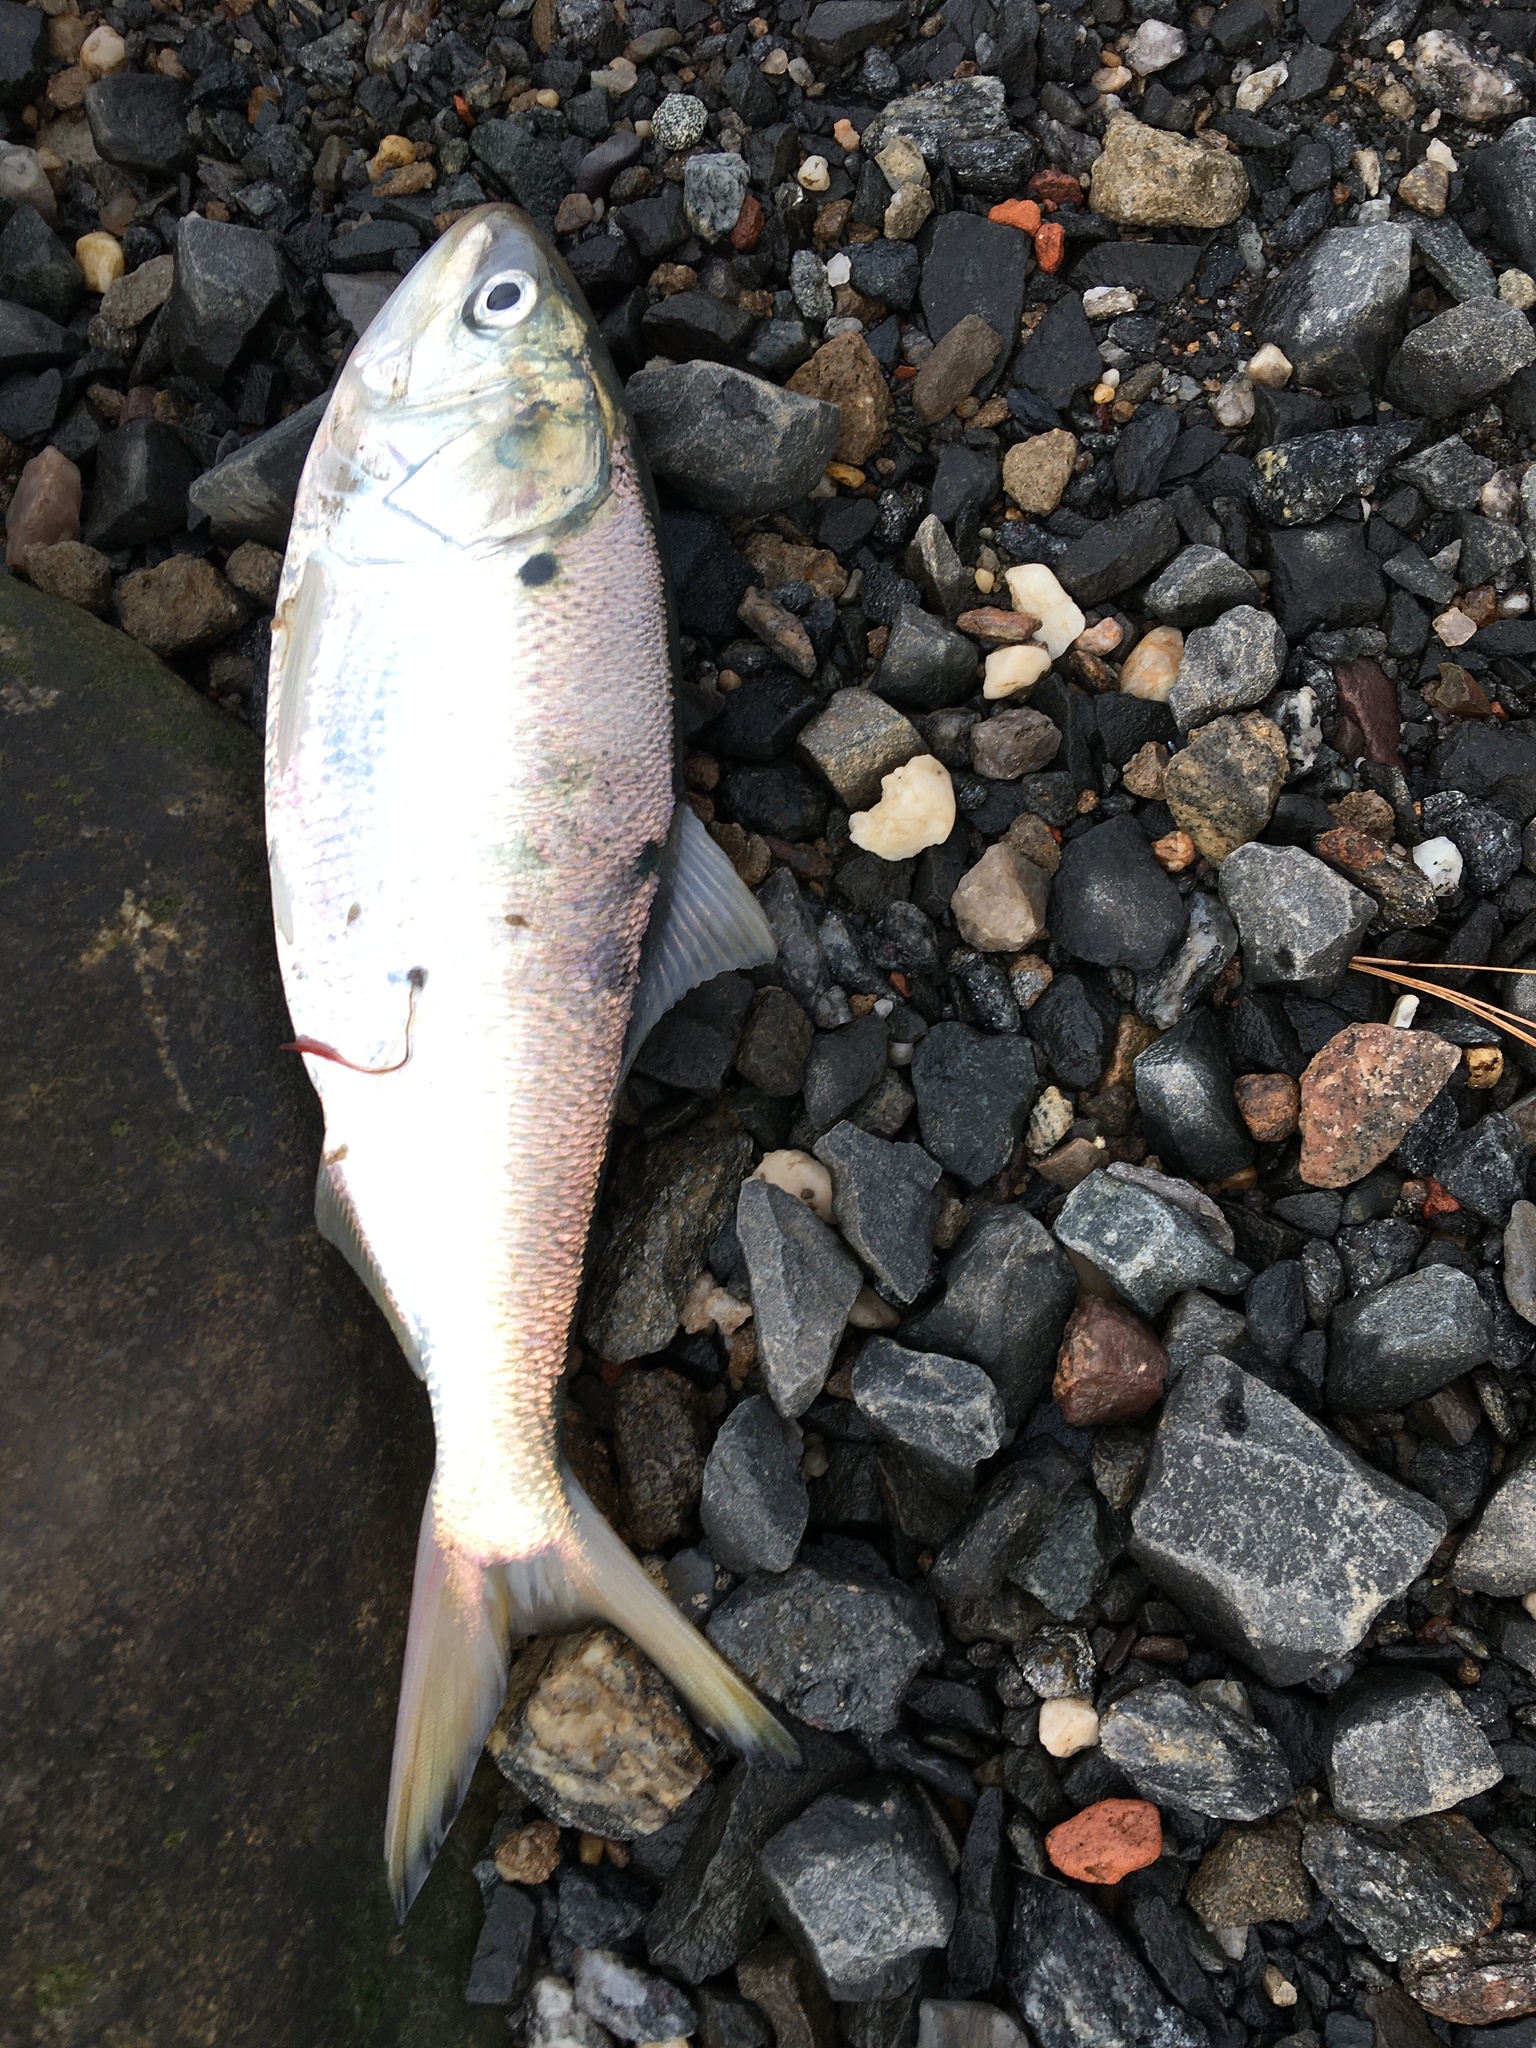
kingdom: Animalia
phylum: Chordata
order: Clupeiformes
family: Clupeidae
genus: Brevoortia
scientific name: Brevoortia tyrannus
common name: Atlantic menhaden
